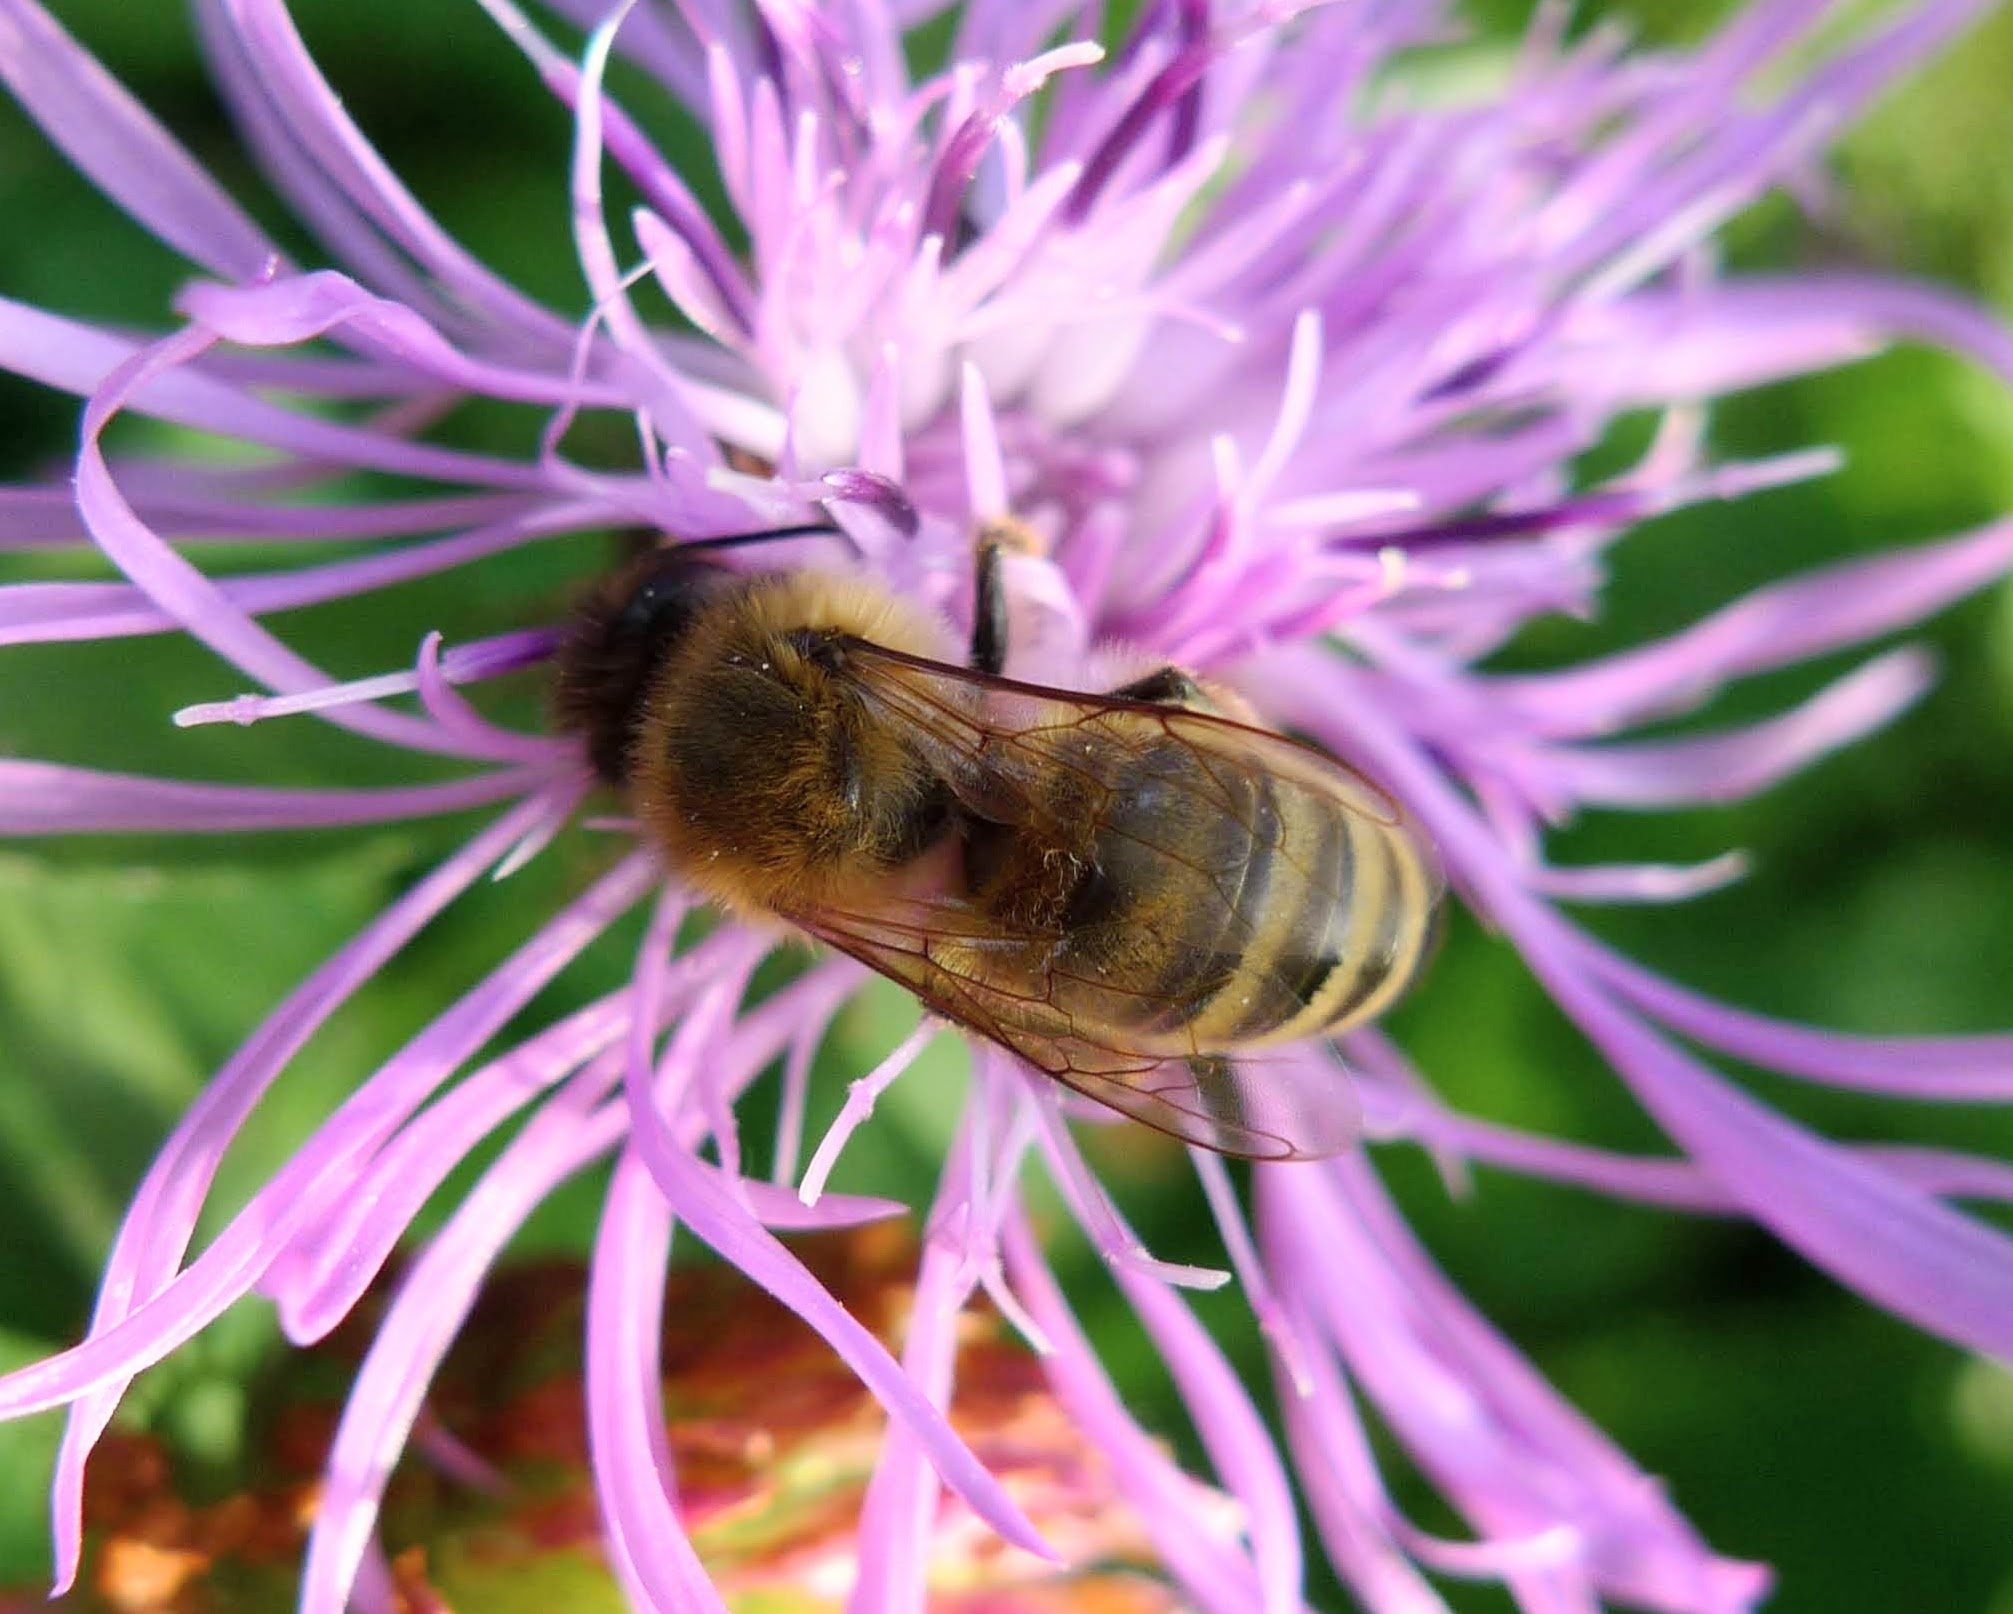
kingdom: Animalia
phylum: Arthropoda
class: Insecta
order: Hymenoptera
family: Apidae
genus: Apis
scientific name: Apis mellifera
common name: Honey bee
